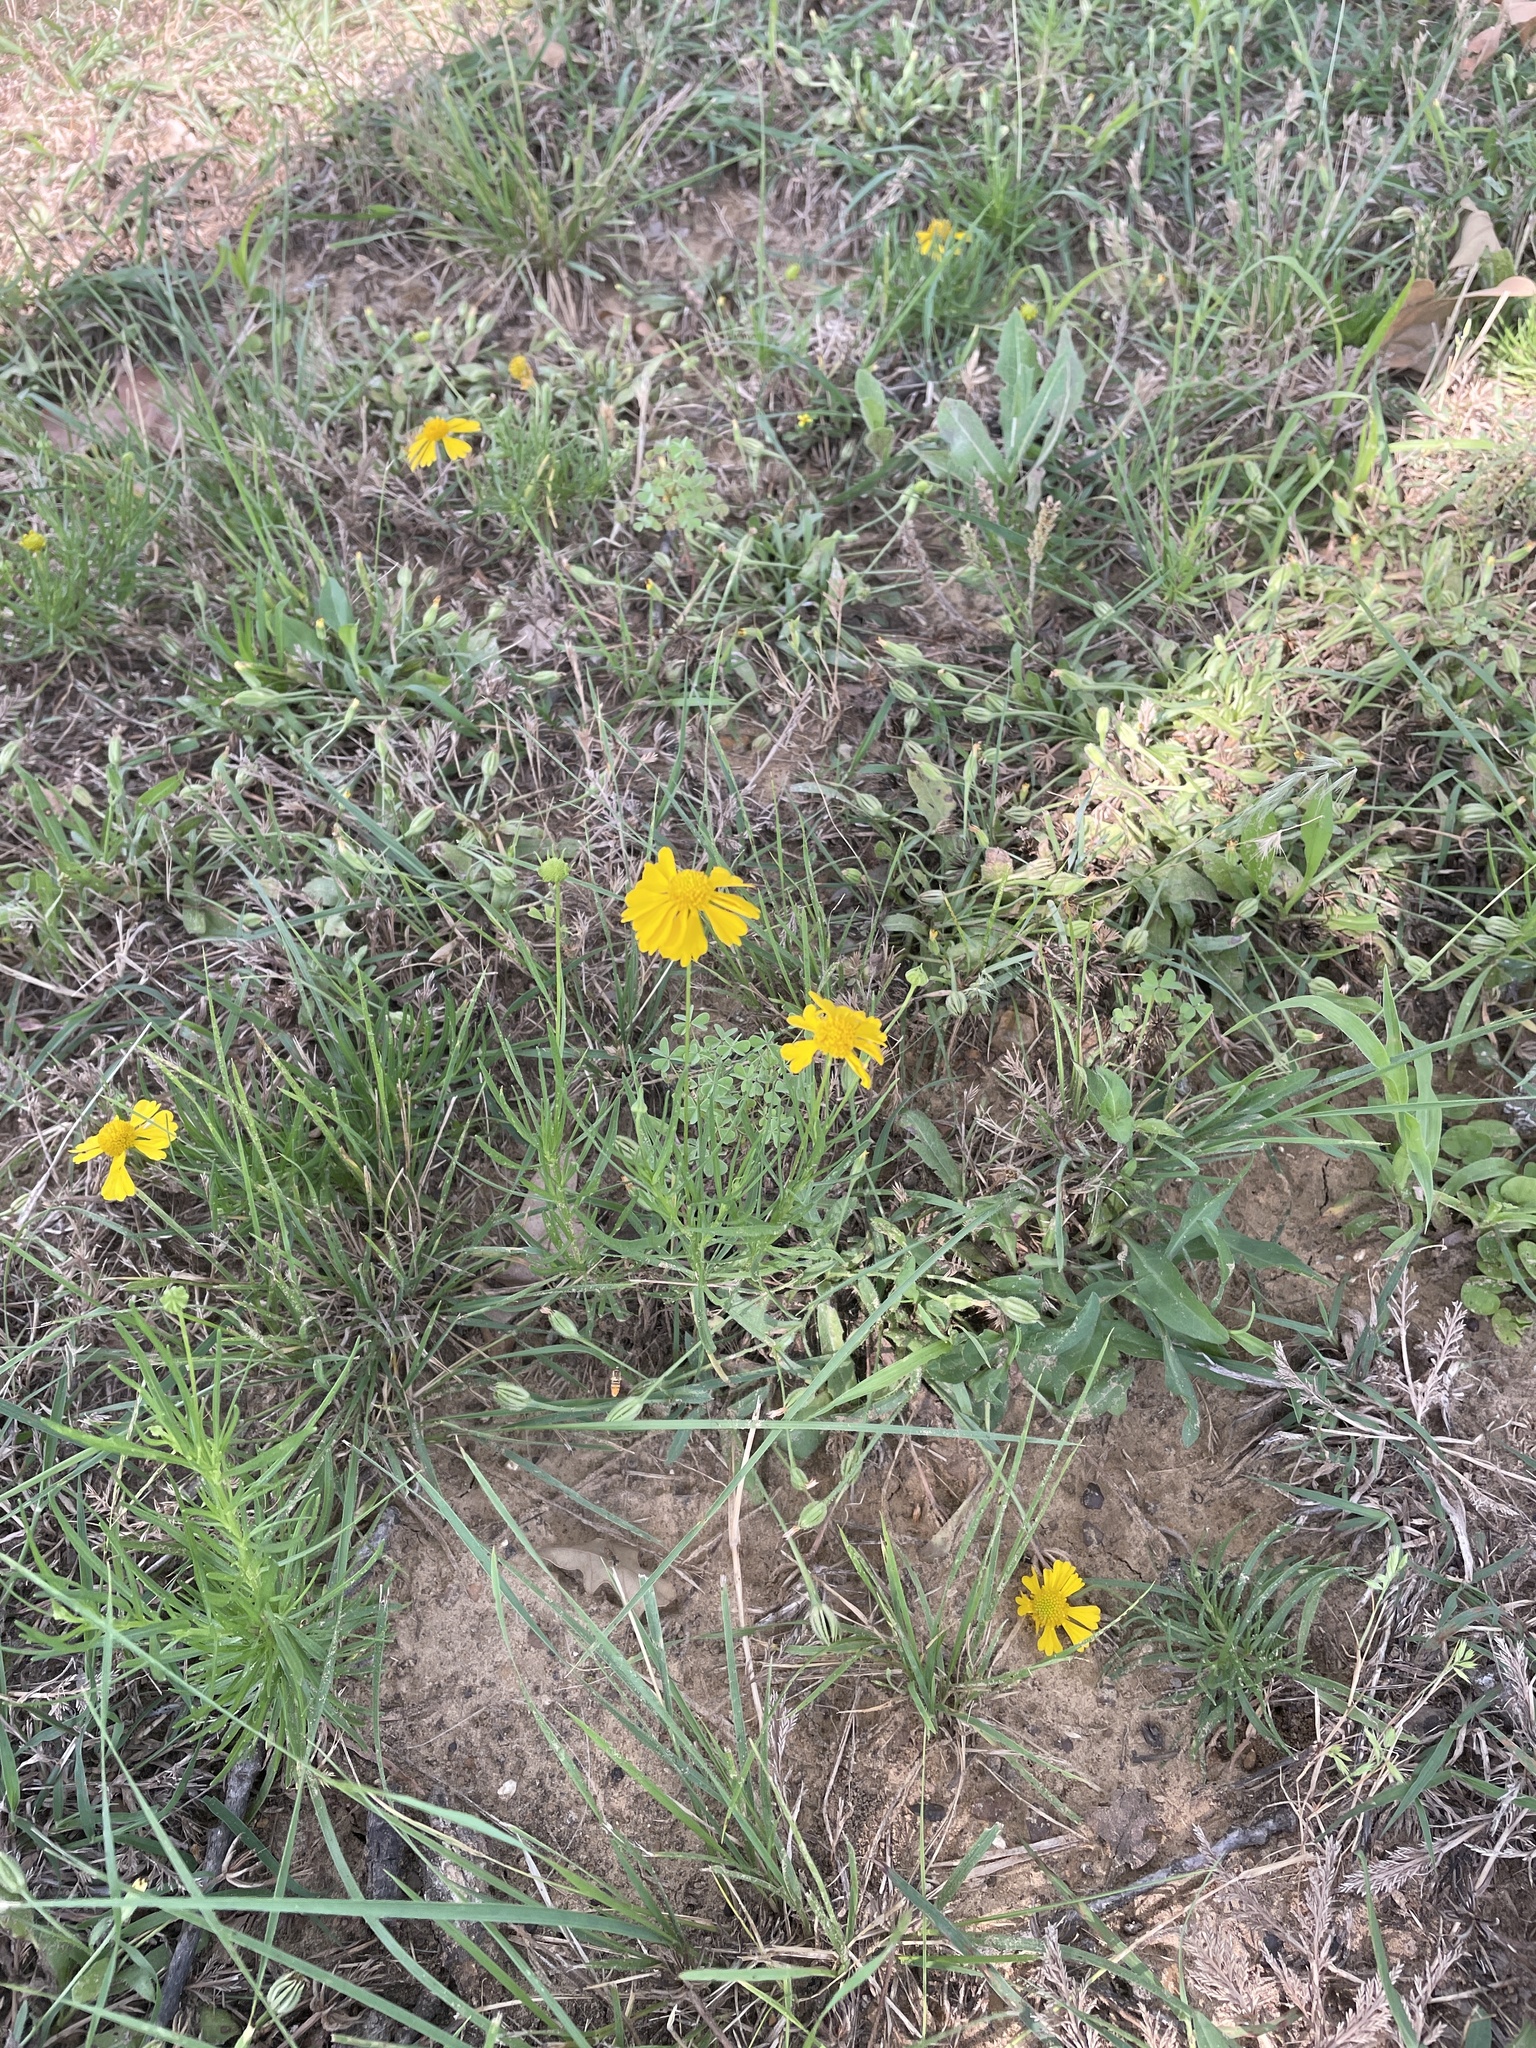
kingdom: Plantae
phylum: Tracheophyta
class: Magnoliopsida
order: Asterales
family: Asteraceae
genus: Helenium
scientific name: Helenium amarum
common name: Bitter sneezeweed
